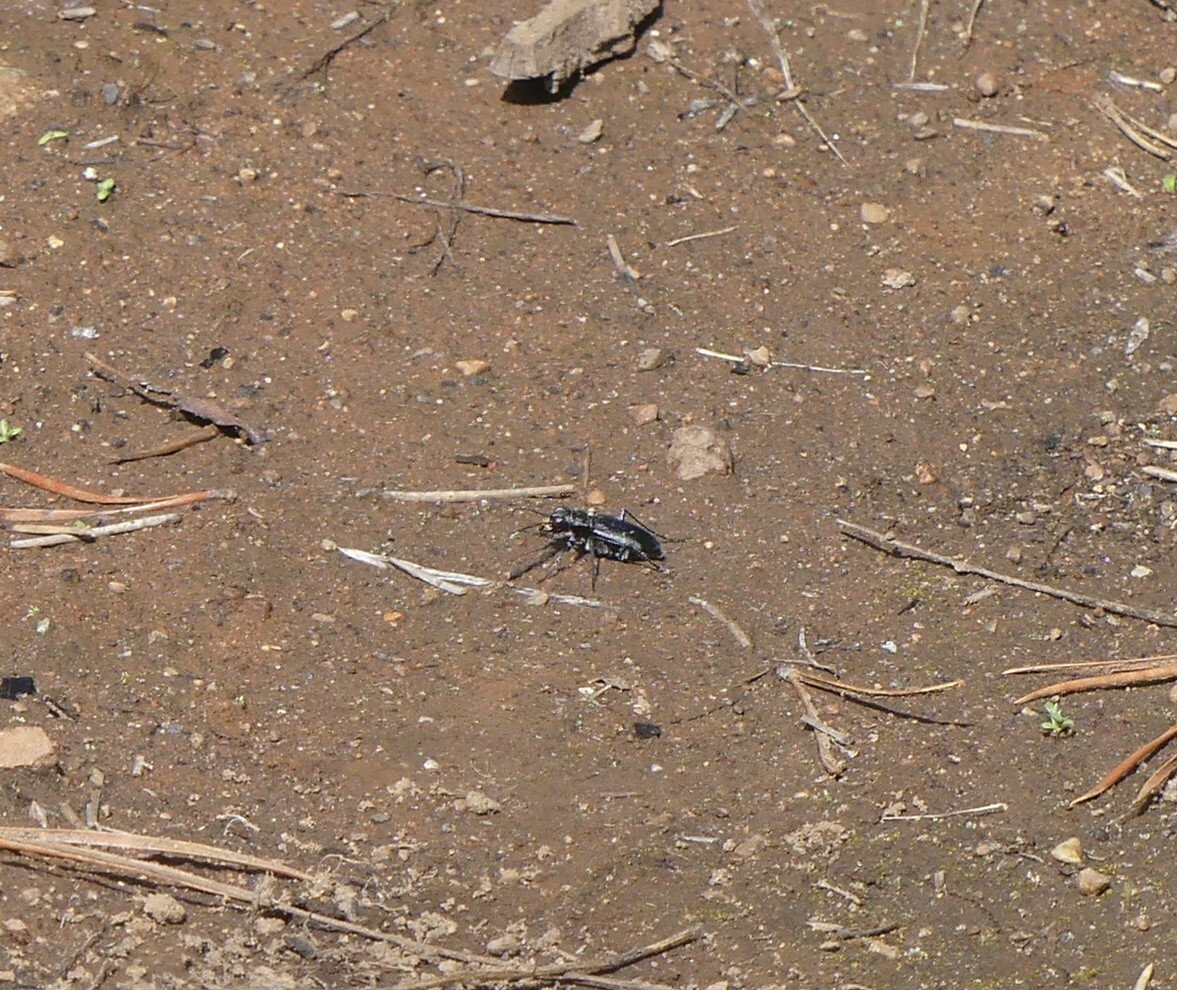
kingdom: Animalia
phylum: Arthropoda
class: Insecta
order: Coleoptera
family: Carabidae
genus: Cicindela
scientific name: Cicindela longilabris
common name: Boreal long-lipped tiger beetle
